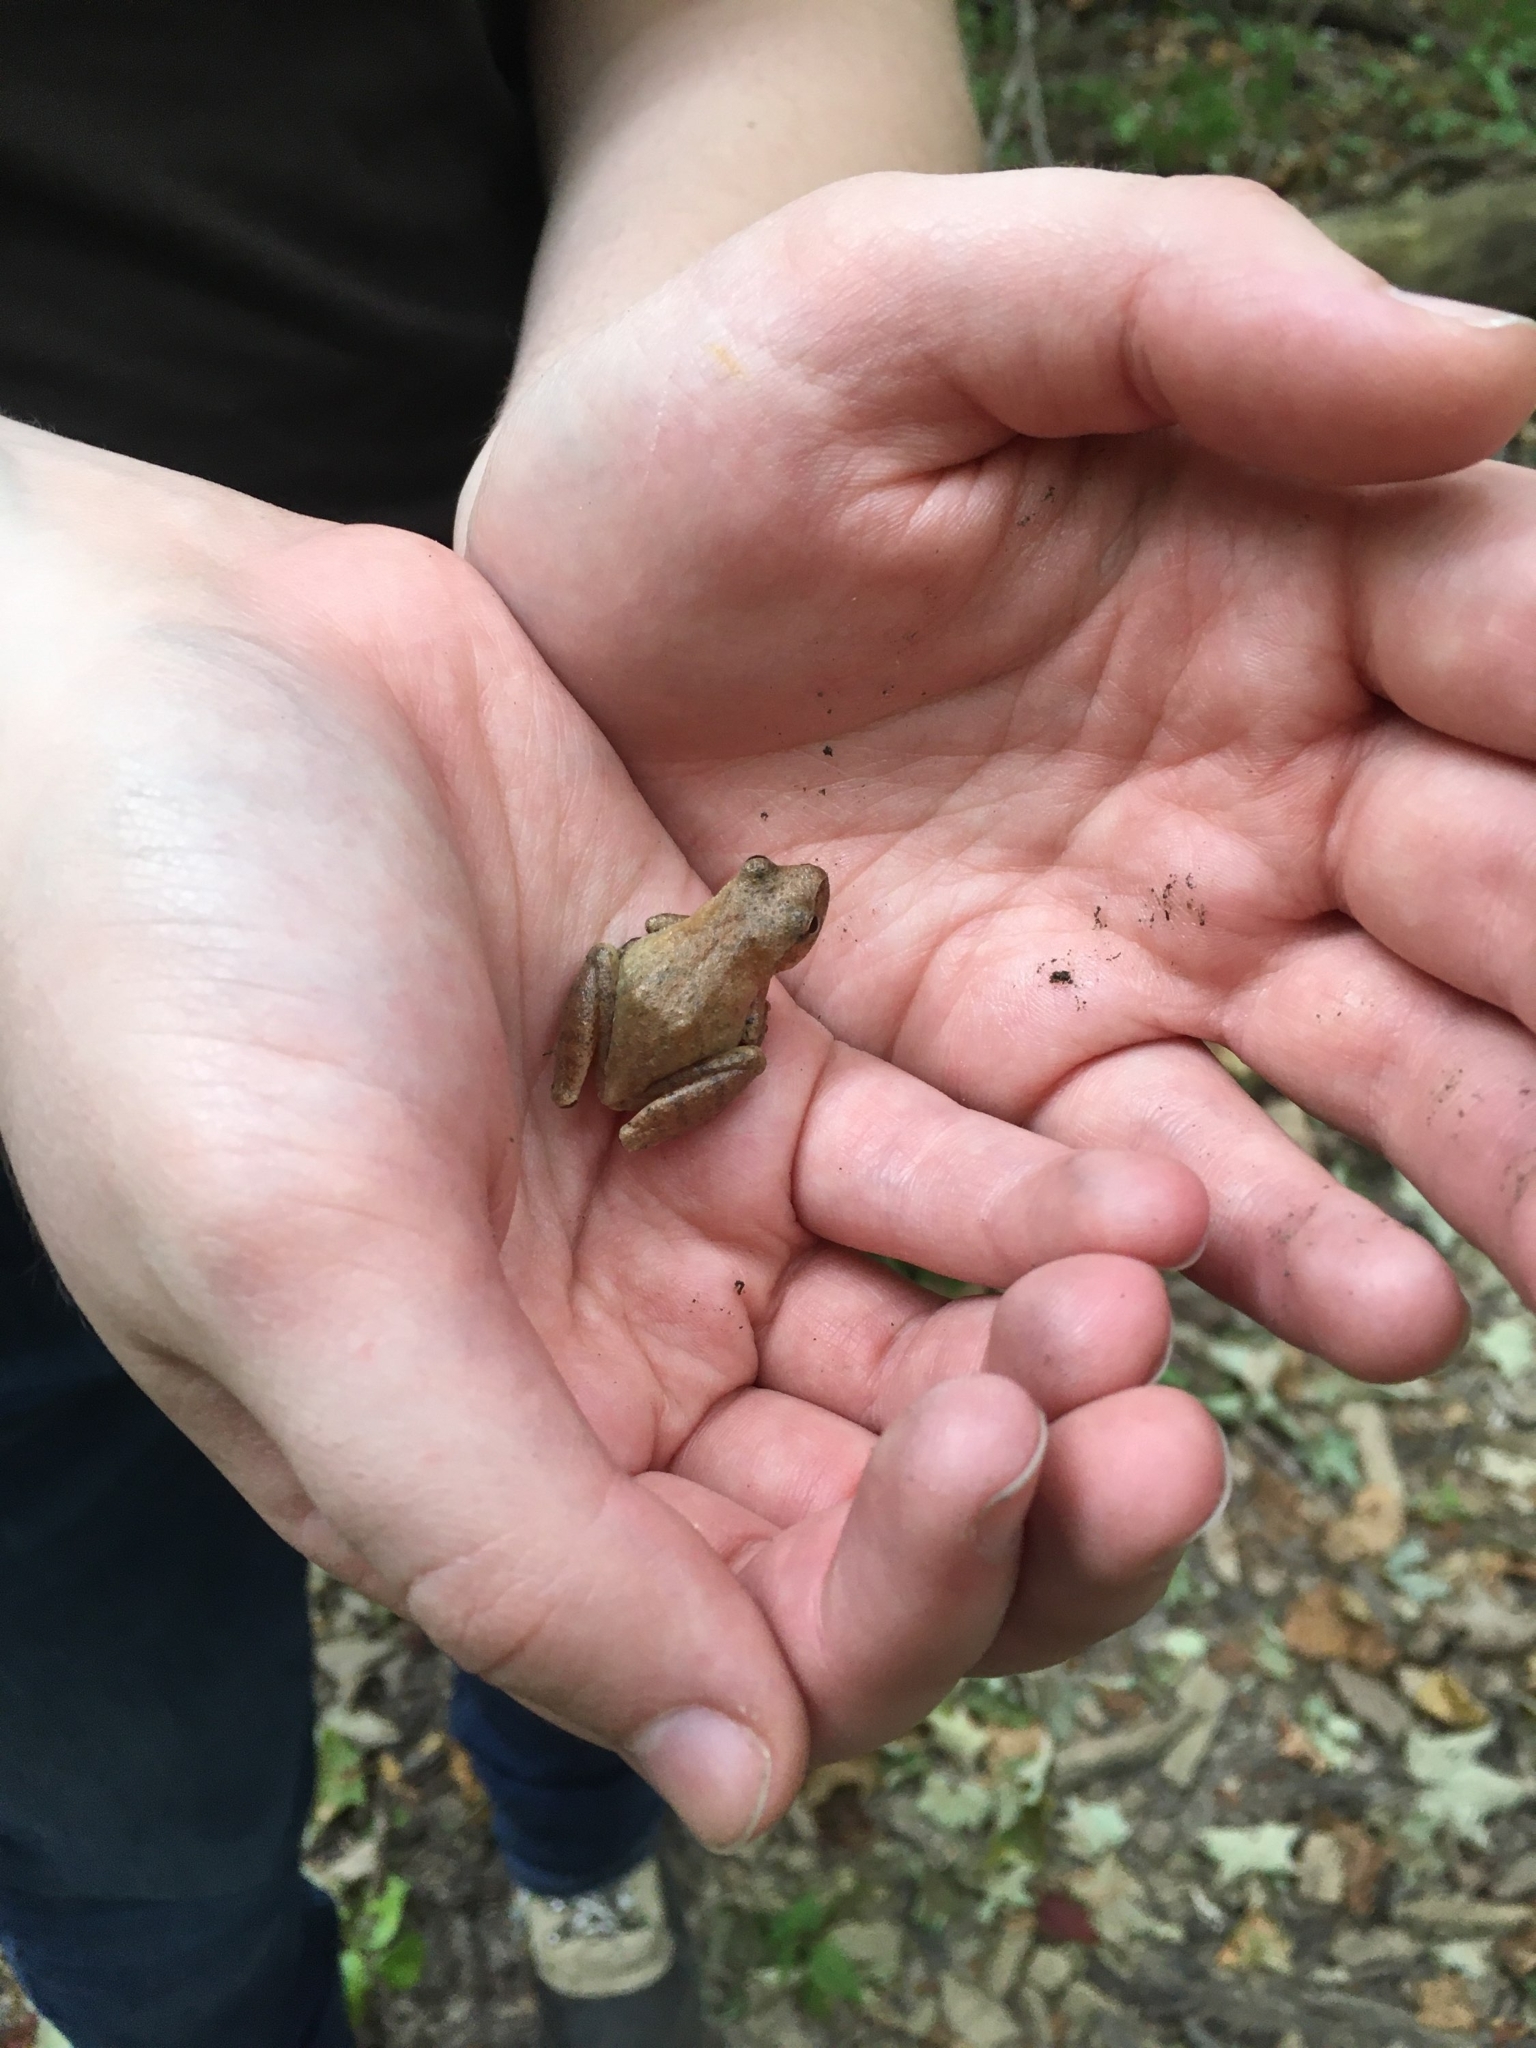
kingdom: Animalia
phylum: Chordata
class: Amphibia
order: Anura
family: Hylidae
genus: Pseudacris
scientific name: Pseudacris crucifer
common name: Spring peeper
